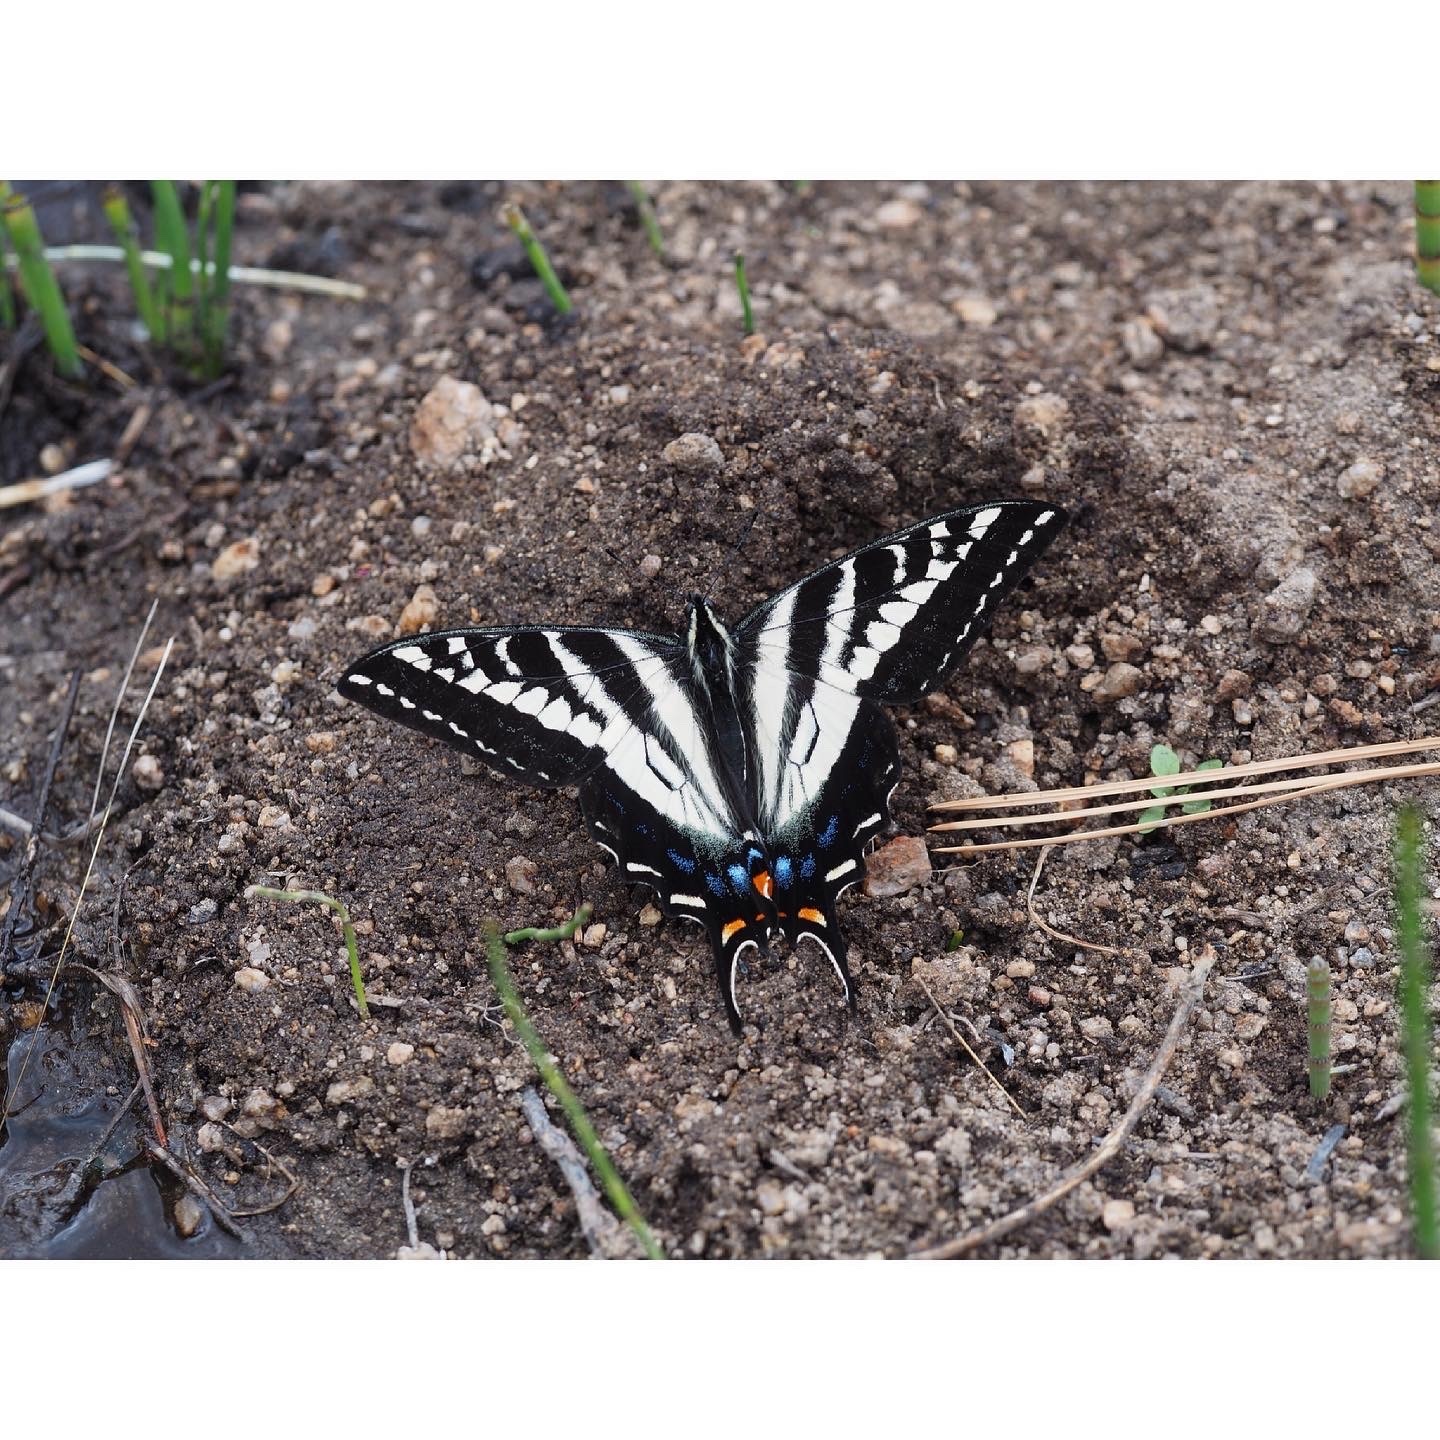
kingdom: Animalia
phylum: Arthropoda
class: Insecta
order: Lepidoptera
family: Papilionidae
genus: Papilio
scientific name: Papilio eurymedon
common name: Pale tiger swallowtail
